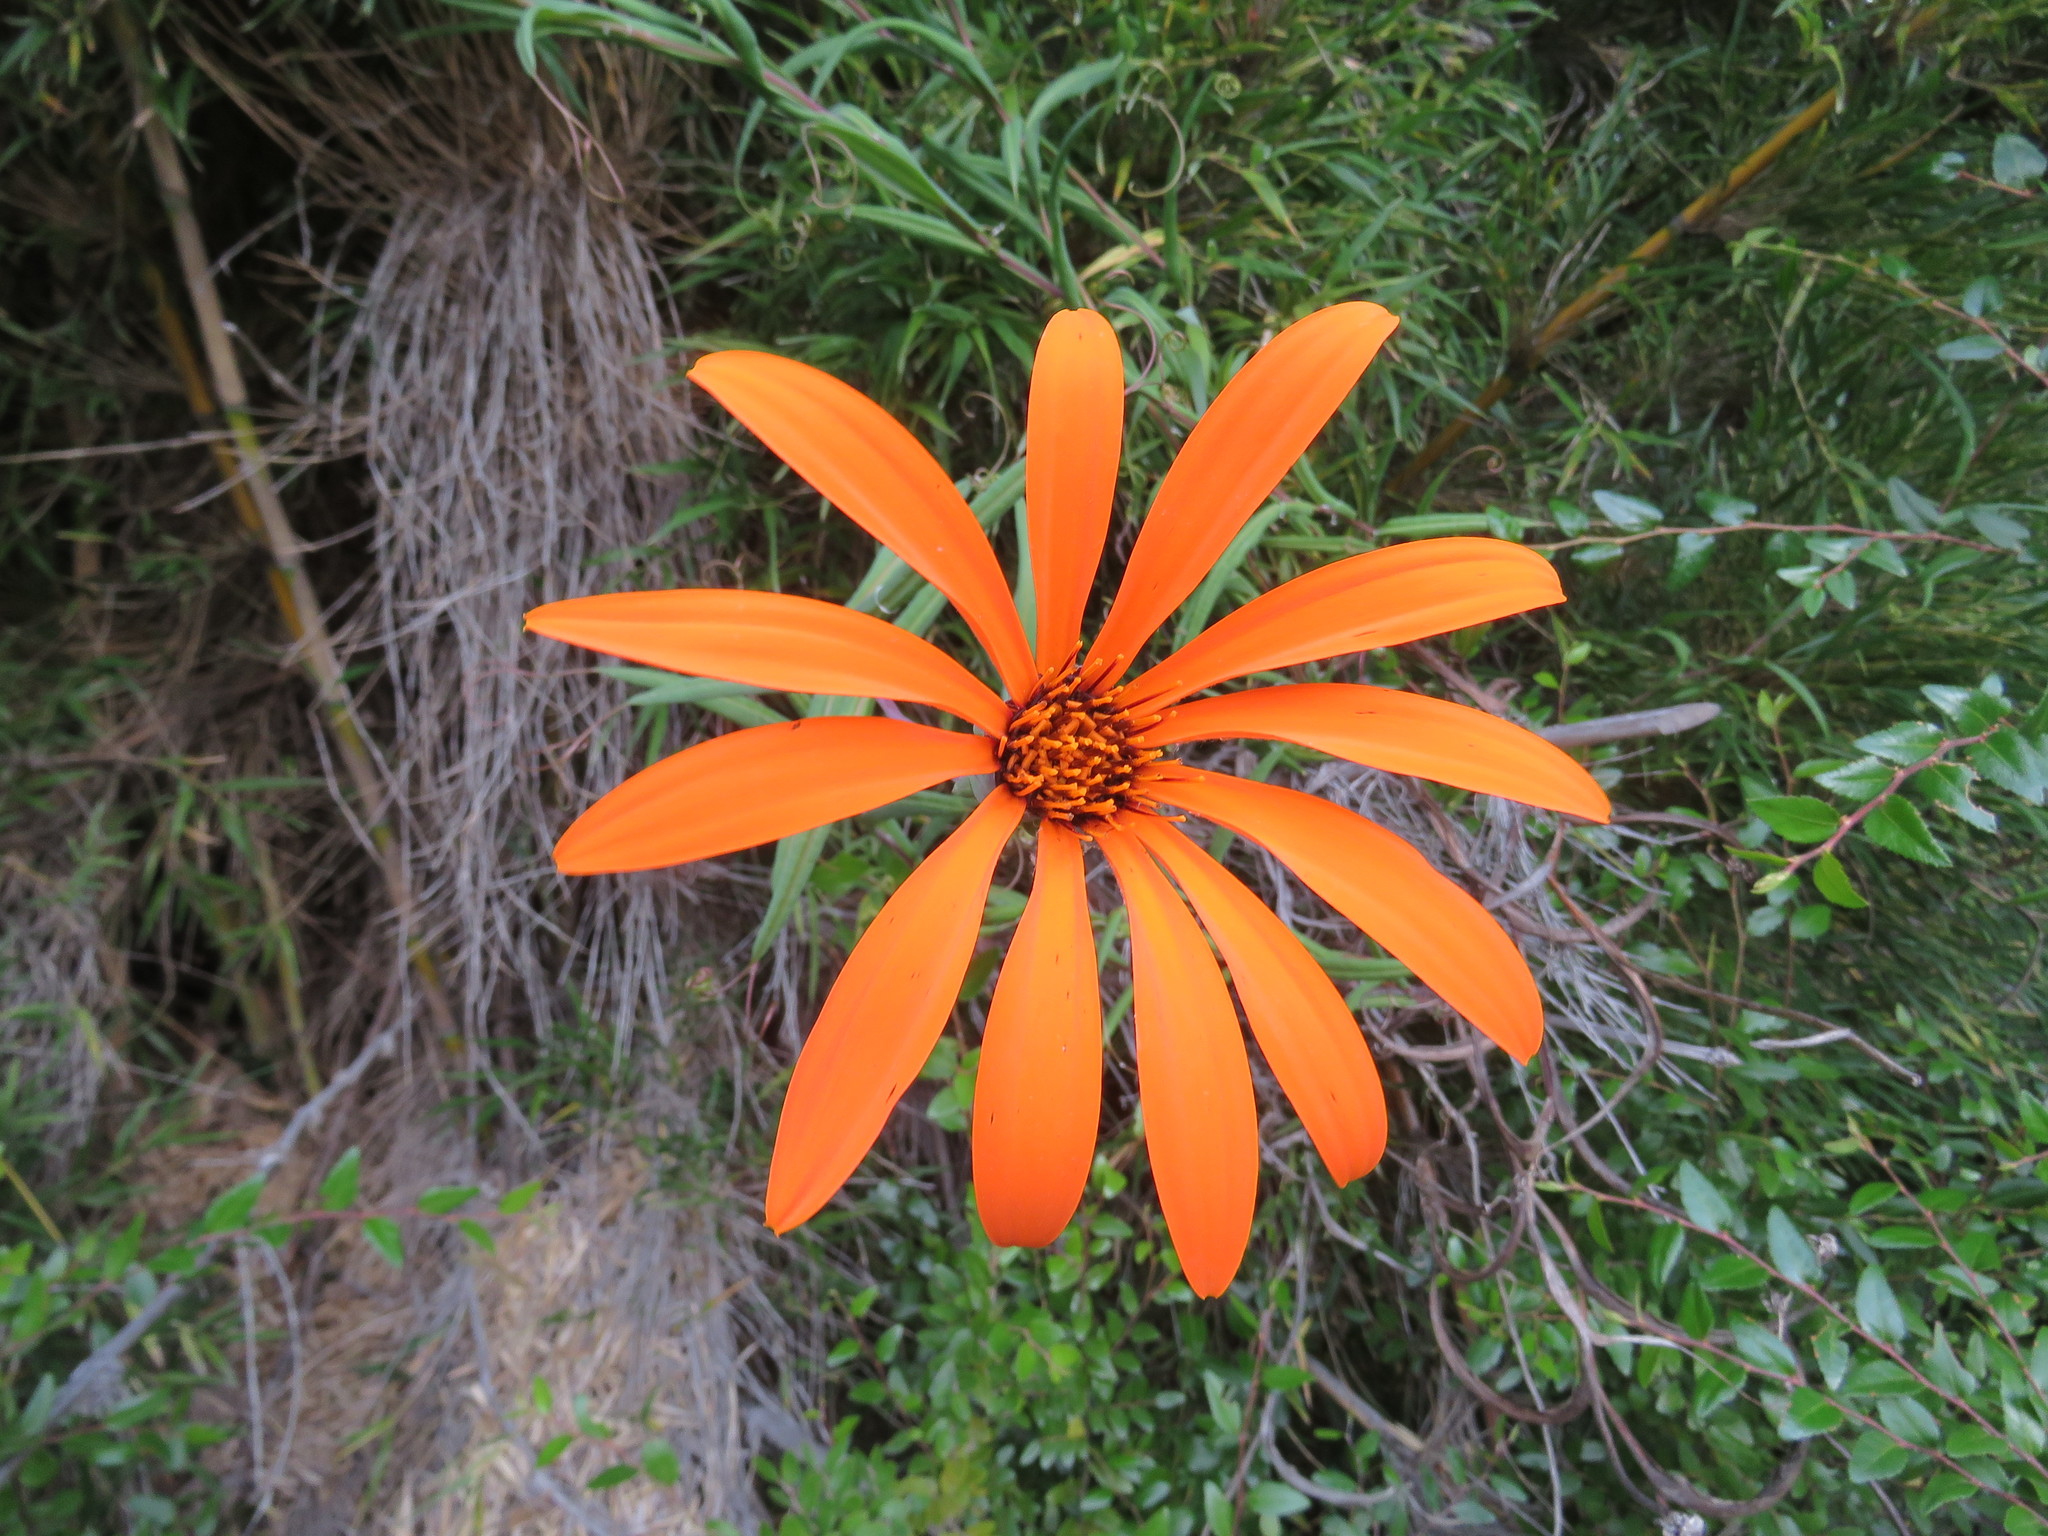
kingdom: Plantae
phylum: Tracheophyta
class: Magnoliopsida
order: Asterales
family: Asteraceae
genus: Mutisia
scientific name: Mutisia decurrens
